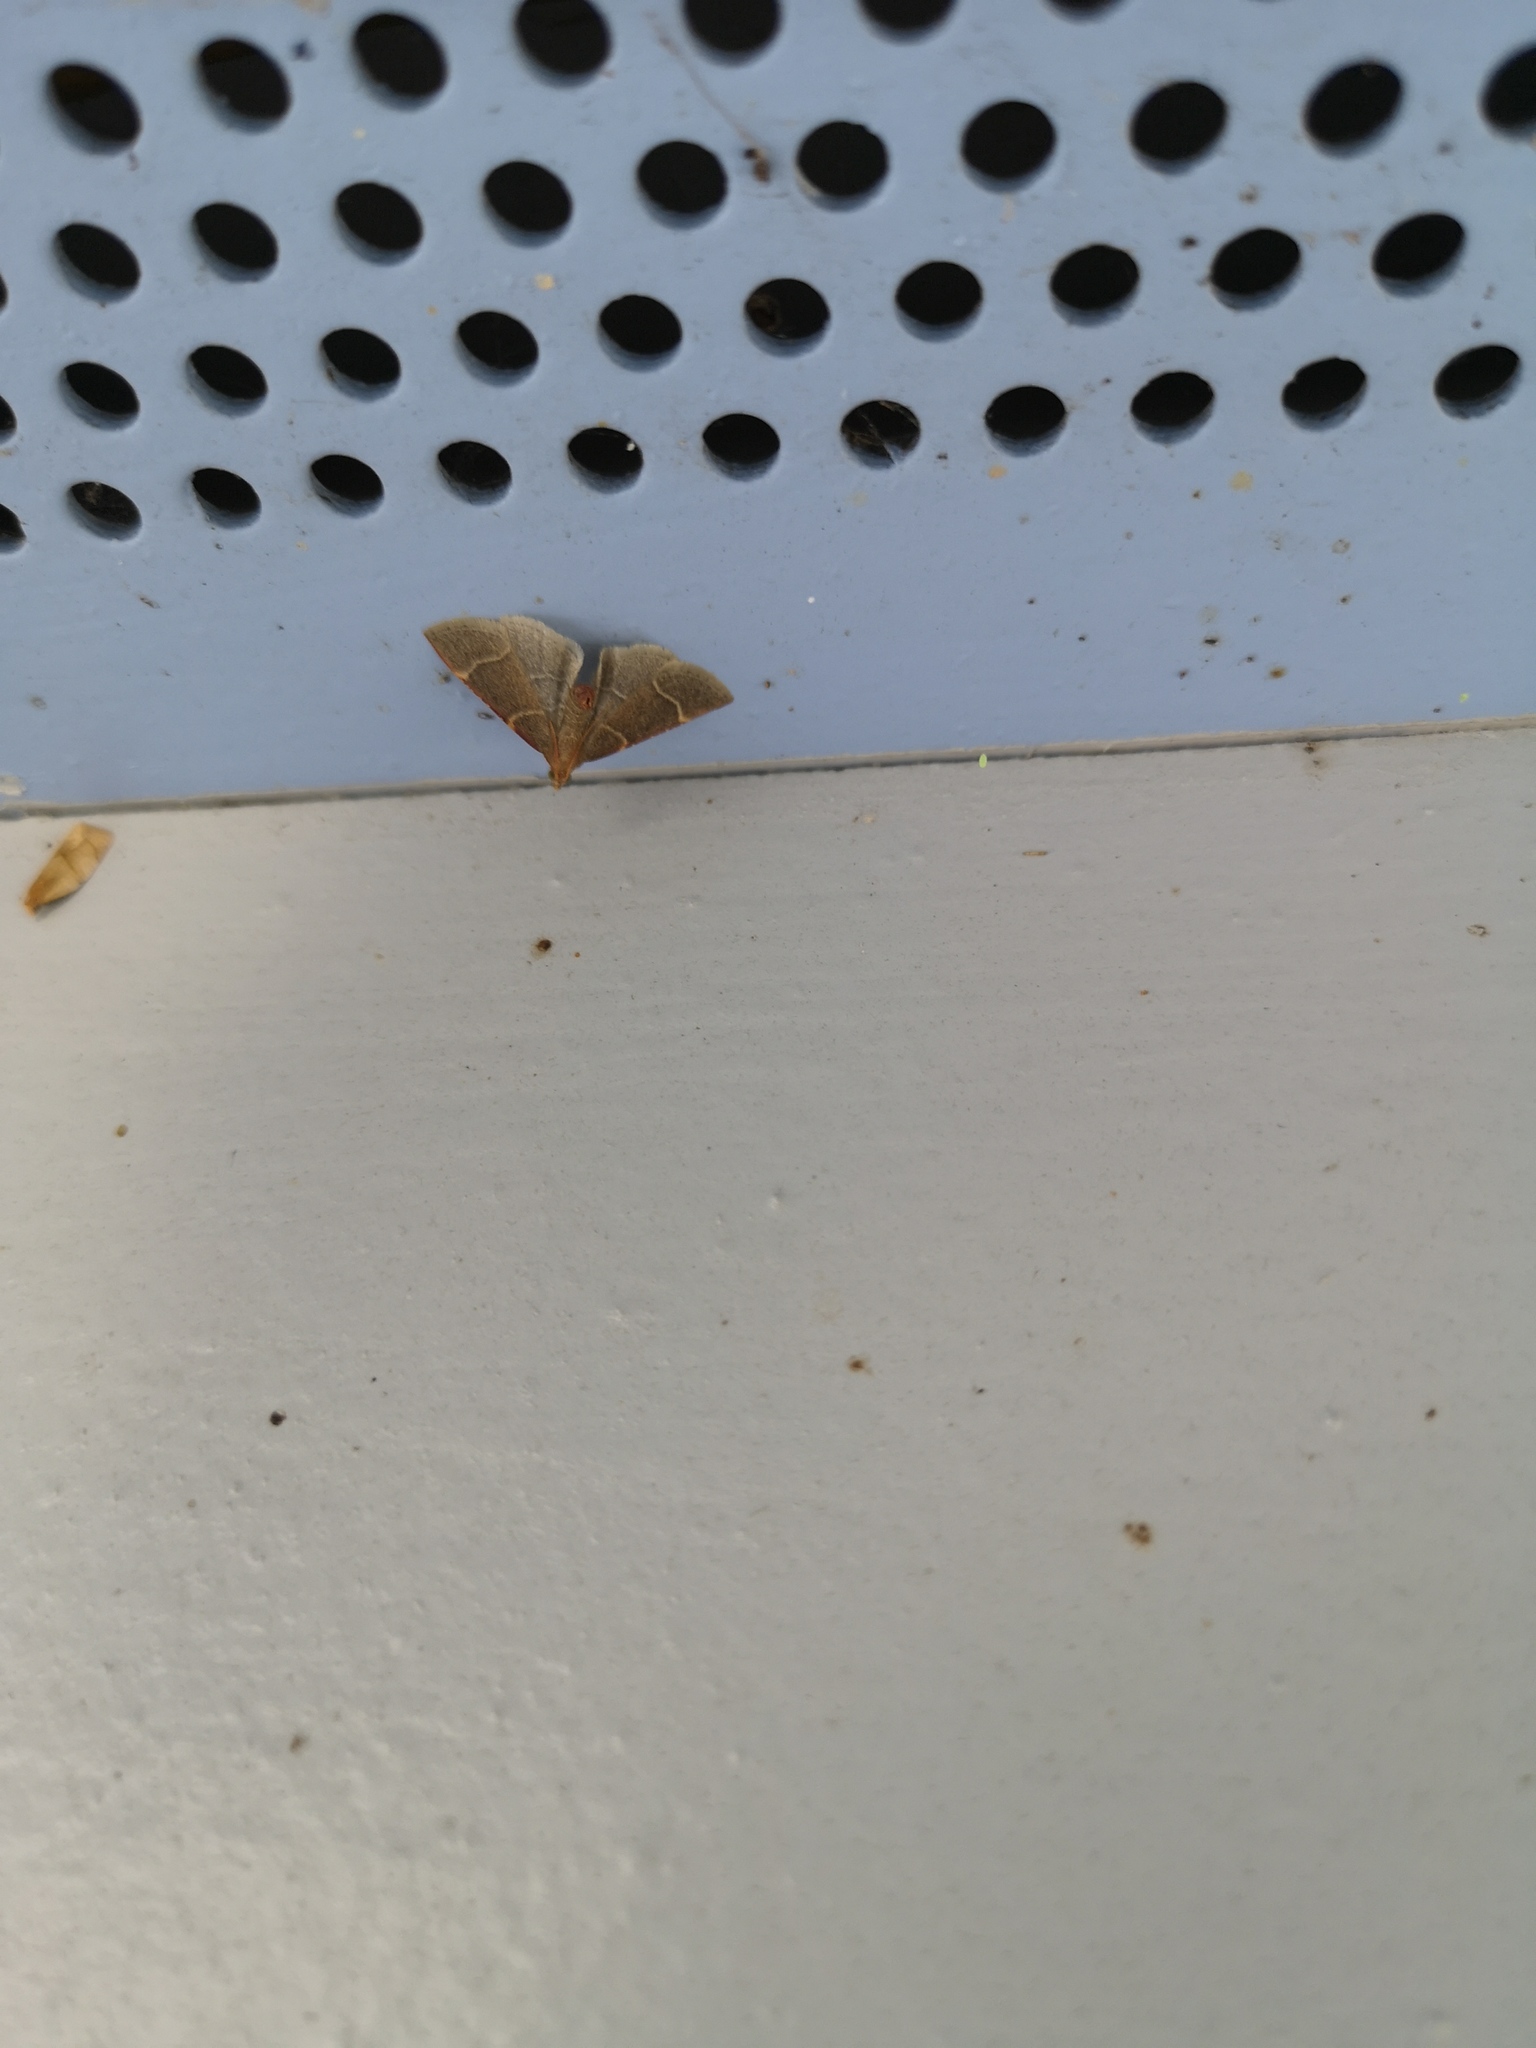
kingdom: Animalia
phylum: Arthropoda
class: Insecta
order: Lepidoptera
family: Pyralidae
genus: Hypsopygia
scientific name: Hypsopygia glaucinalis
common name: Double-striped tabby
